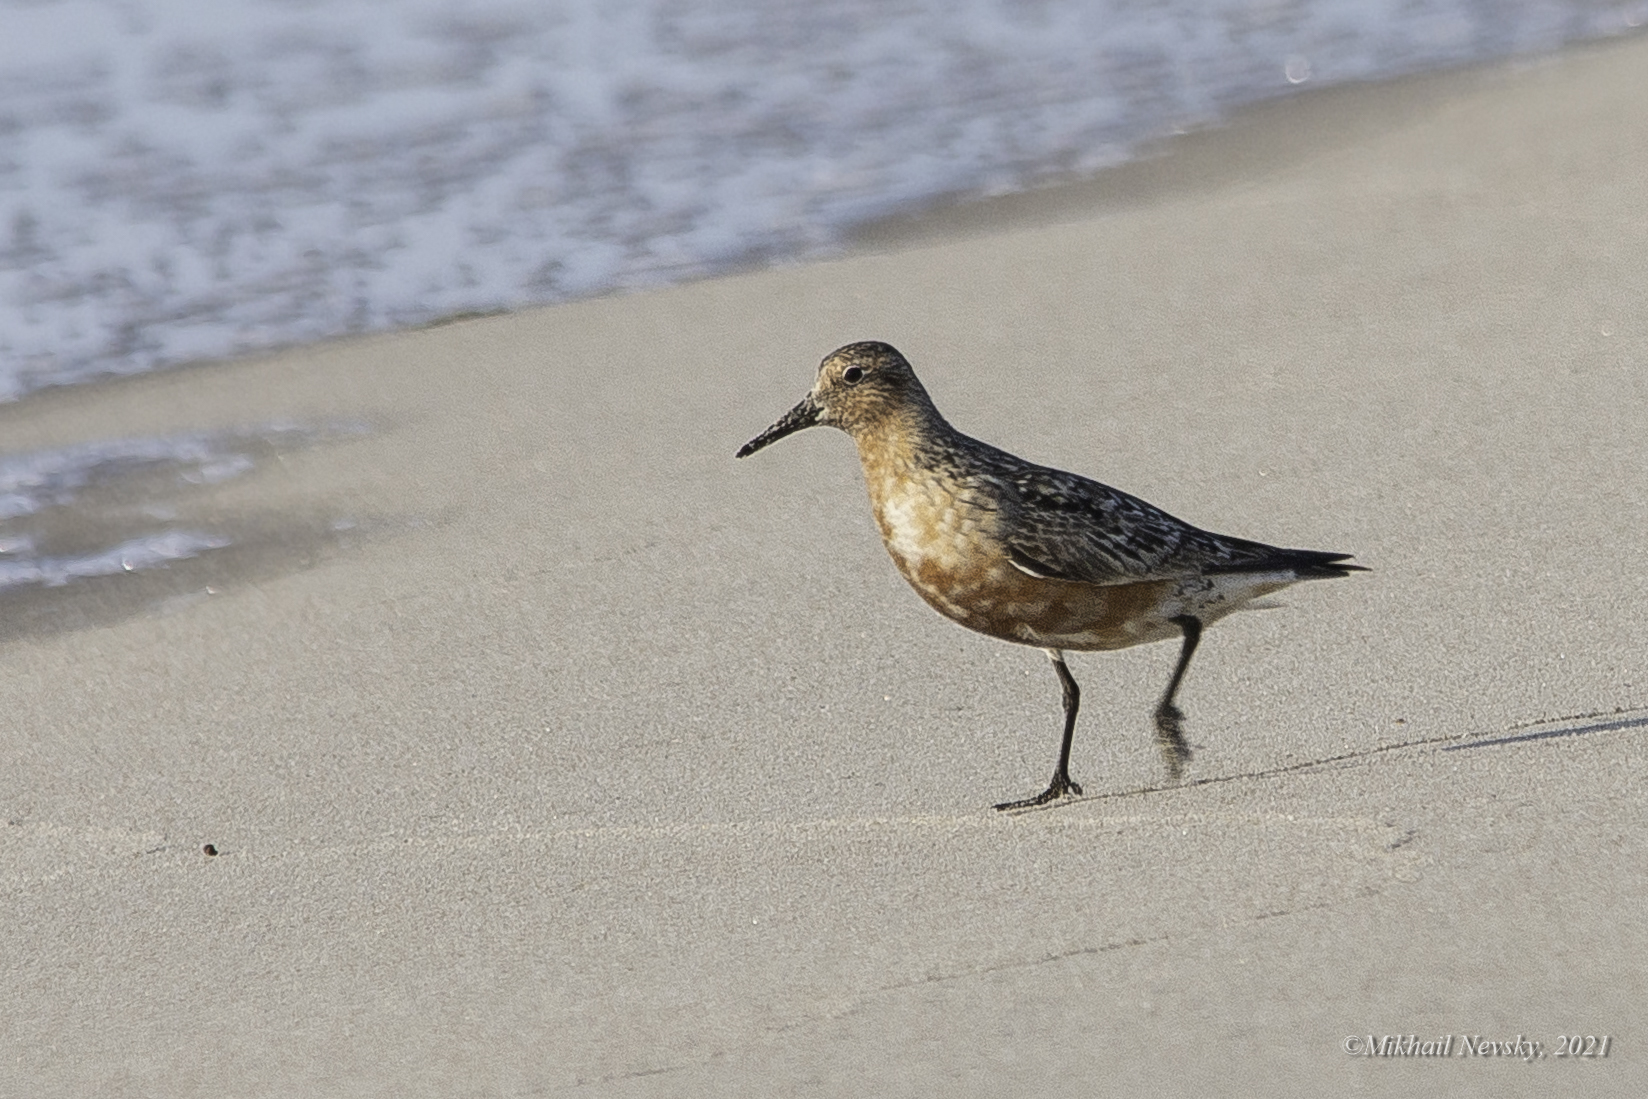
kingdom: Animalia
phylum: Chordata
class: Aves
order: Charadriiformes
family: Scolopacidae
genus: Calidris
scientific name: Calidris canutus
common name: Red knot
